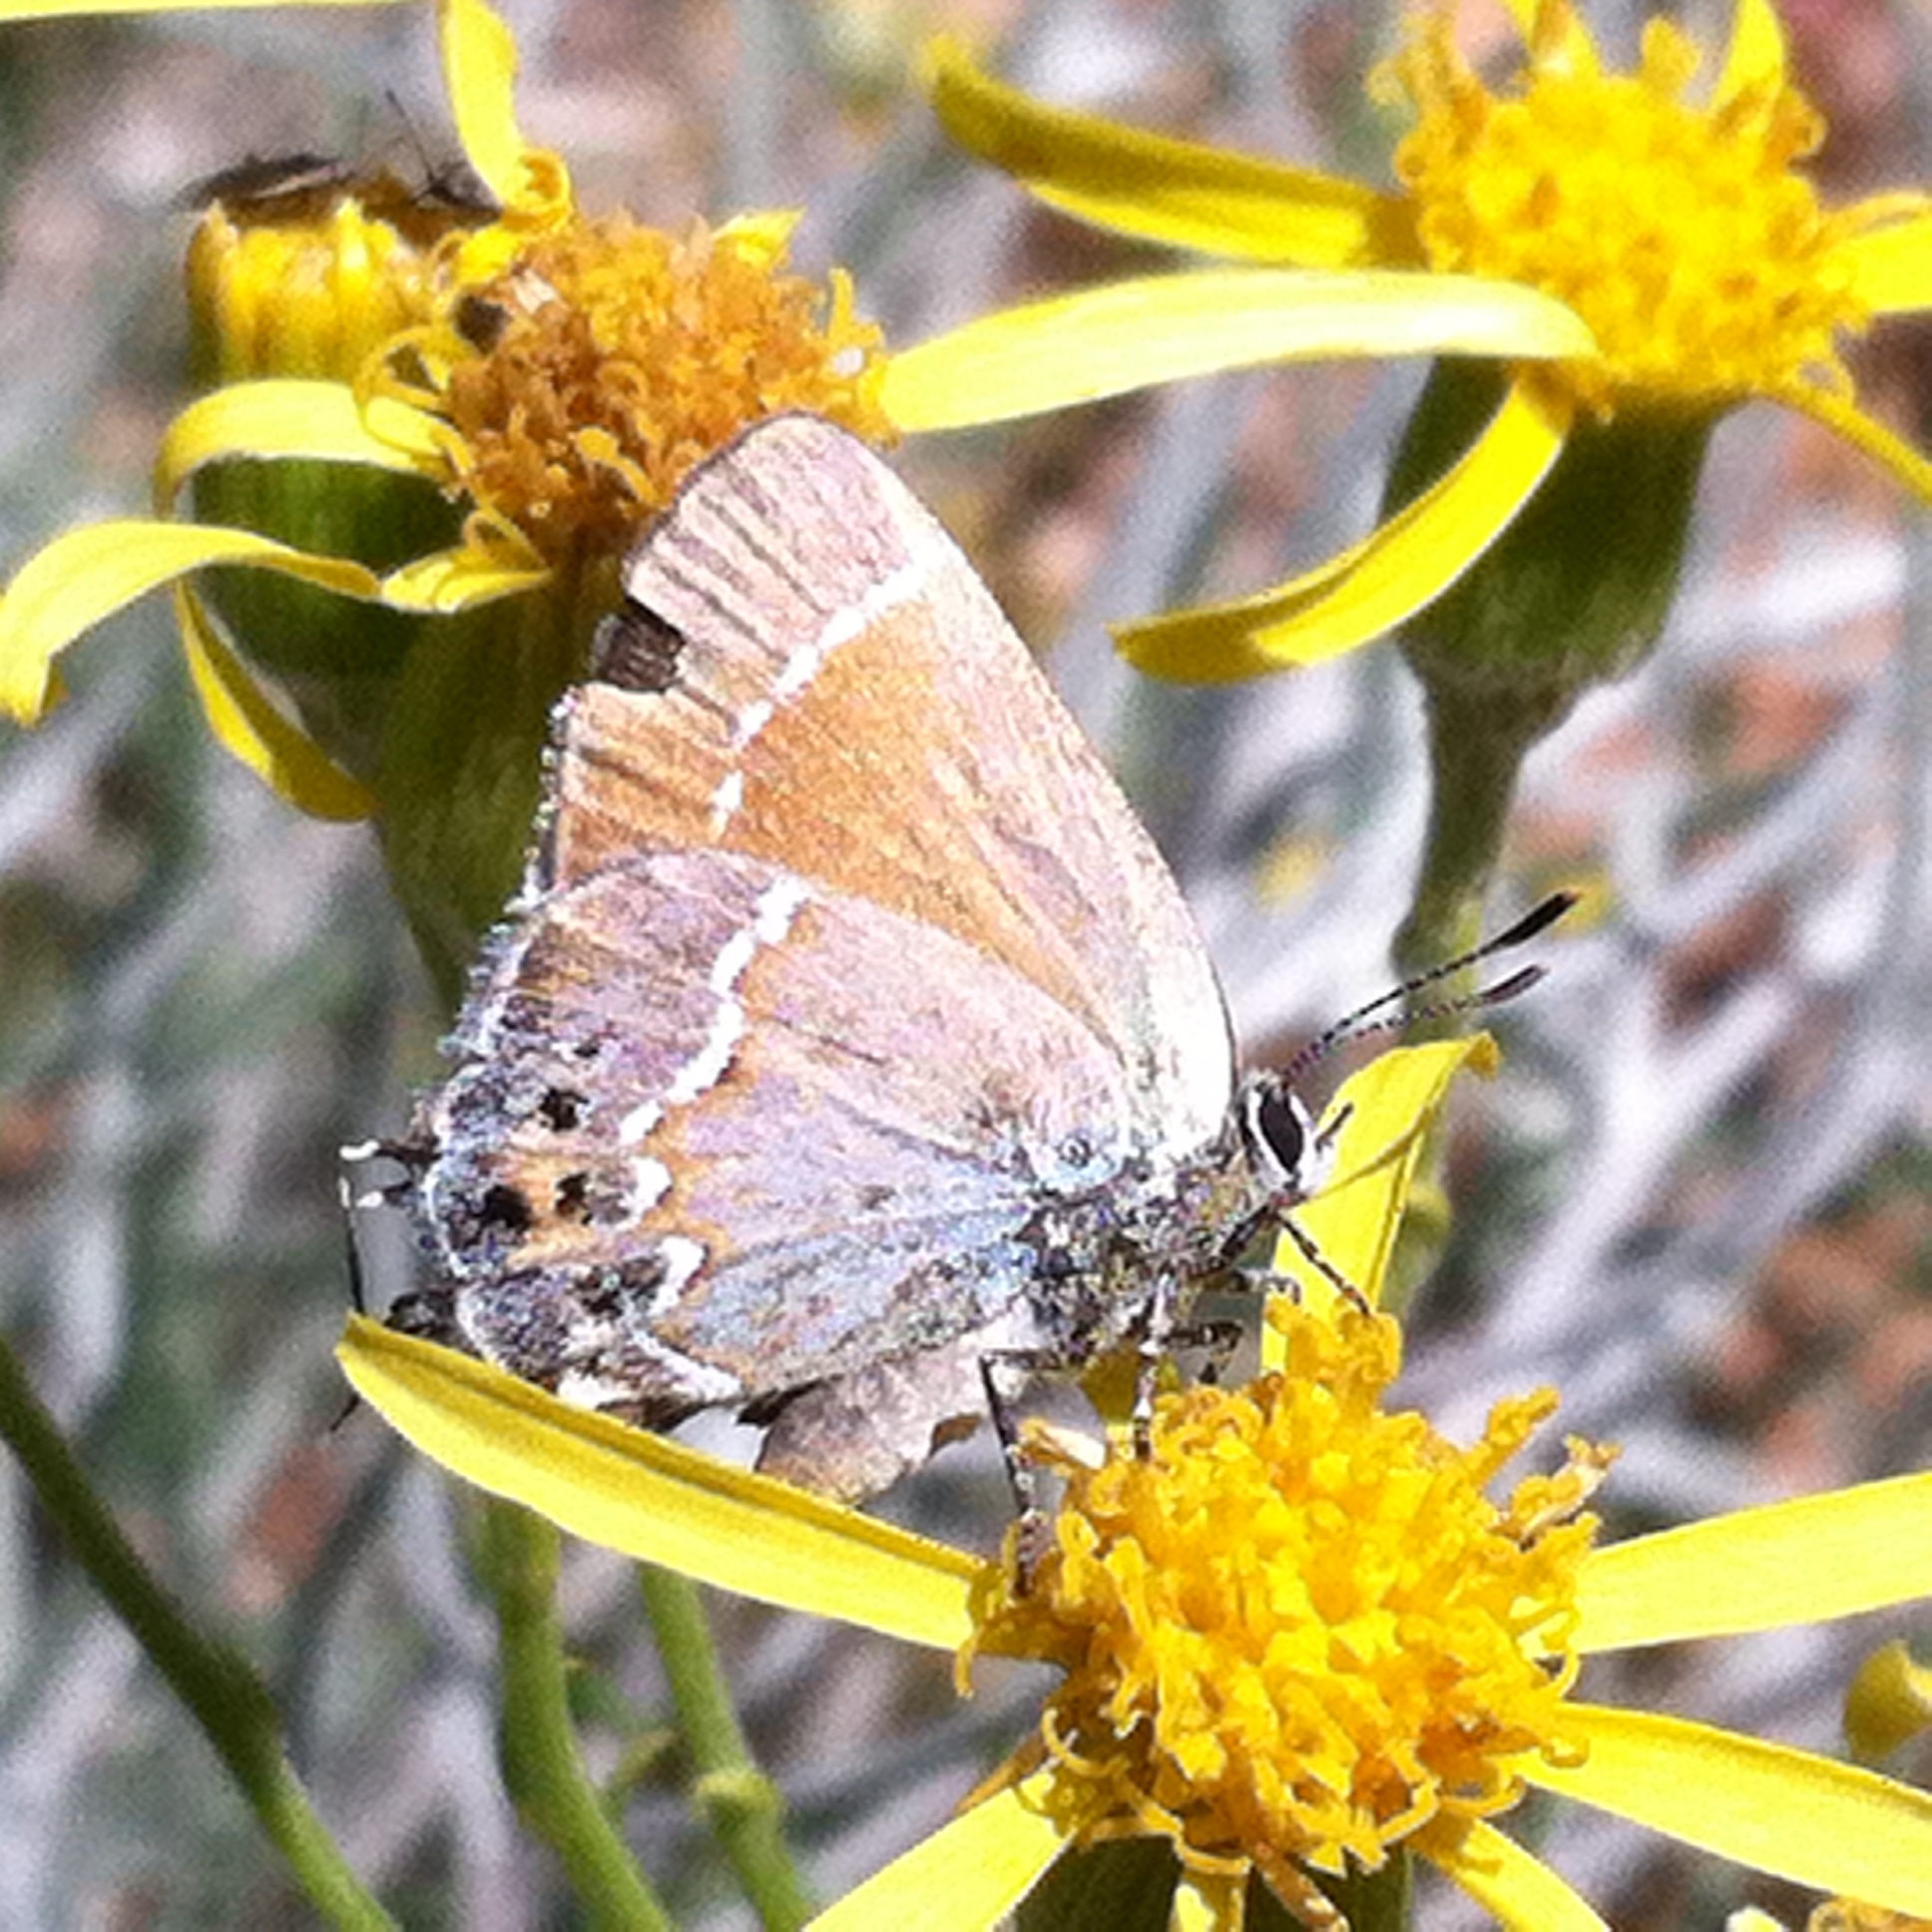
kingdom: Animalia
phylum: Arthropoda
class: Insecta
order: Lepidoptera
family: Lycaenidae
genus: Mitoura
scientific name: Mitoura siva
